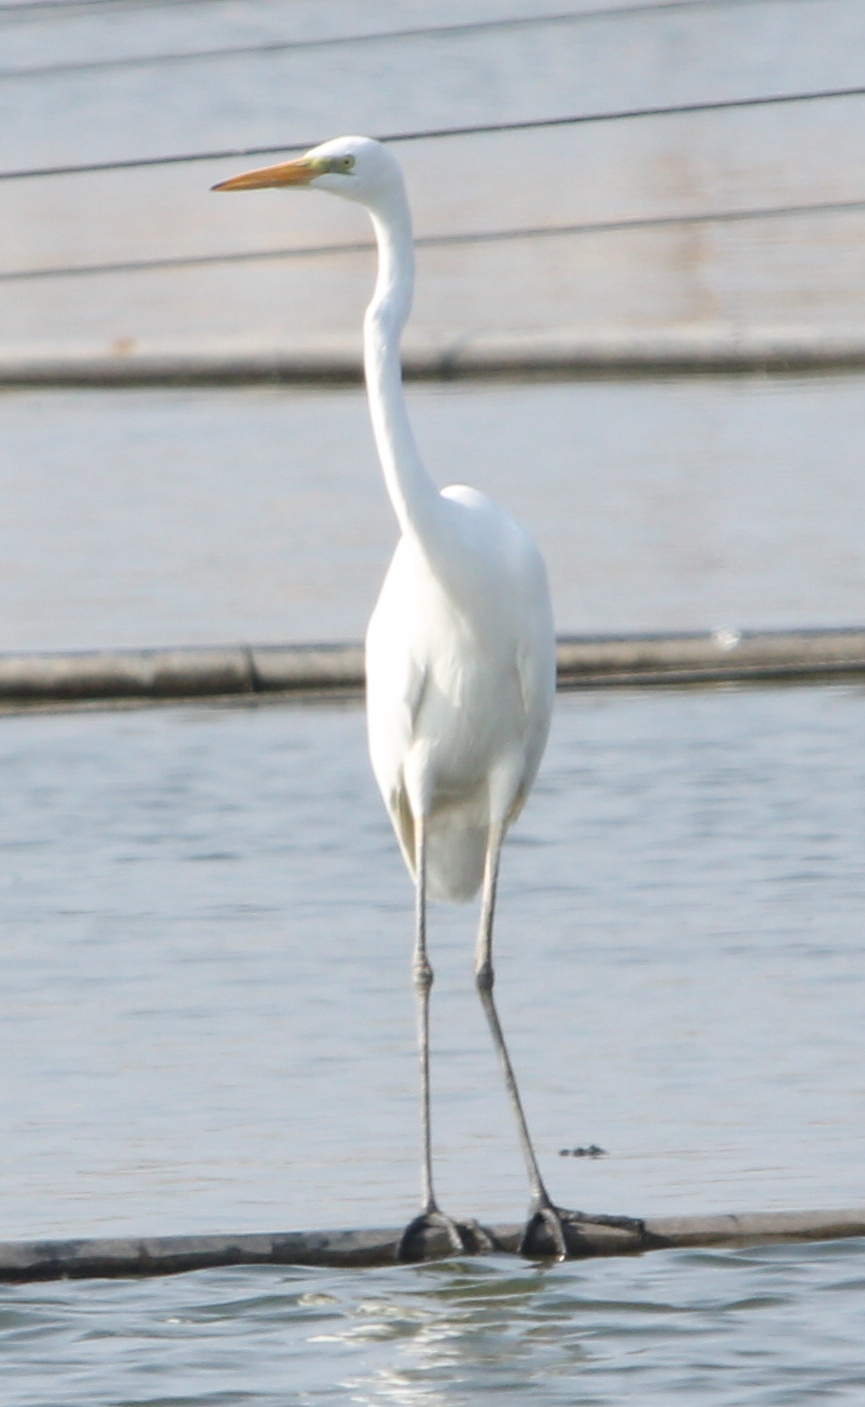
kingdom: Animalia
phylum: Chordata
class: Aves
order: Pelecaniformes
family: Ardeidae
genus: Ardea
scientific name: Ardea alba
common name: Great egret
